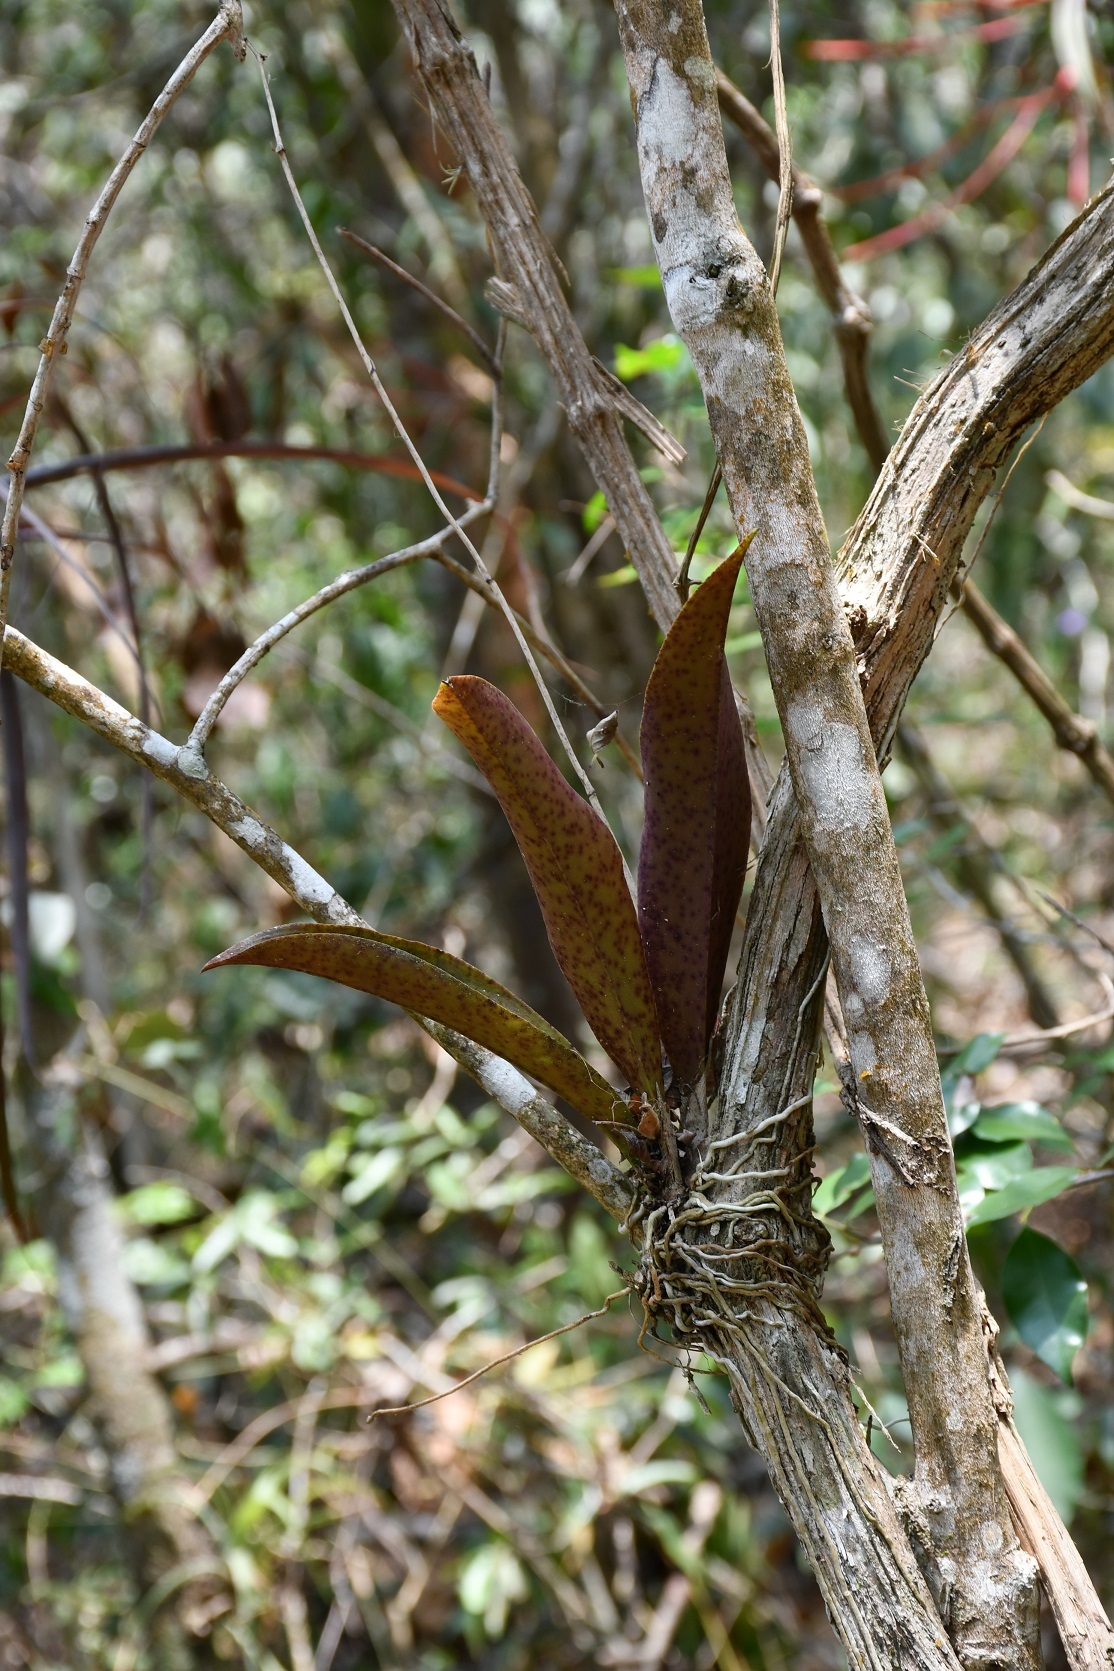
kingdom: Plantae
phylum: Tracheophyta
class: Liliopsida
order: Asparagales
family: Orchidaceae
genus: Trichocentrum
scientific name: Trichocentrum andreanum
